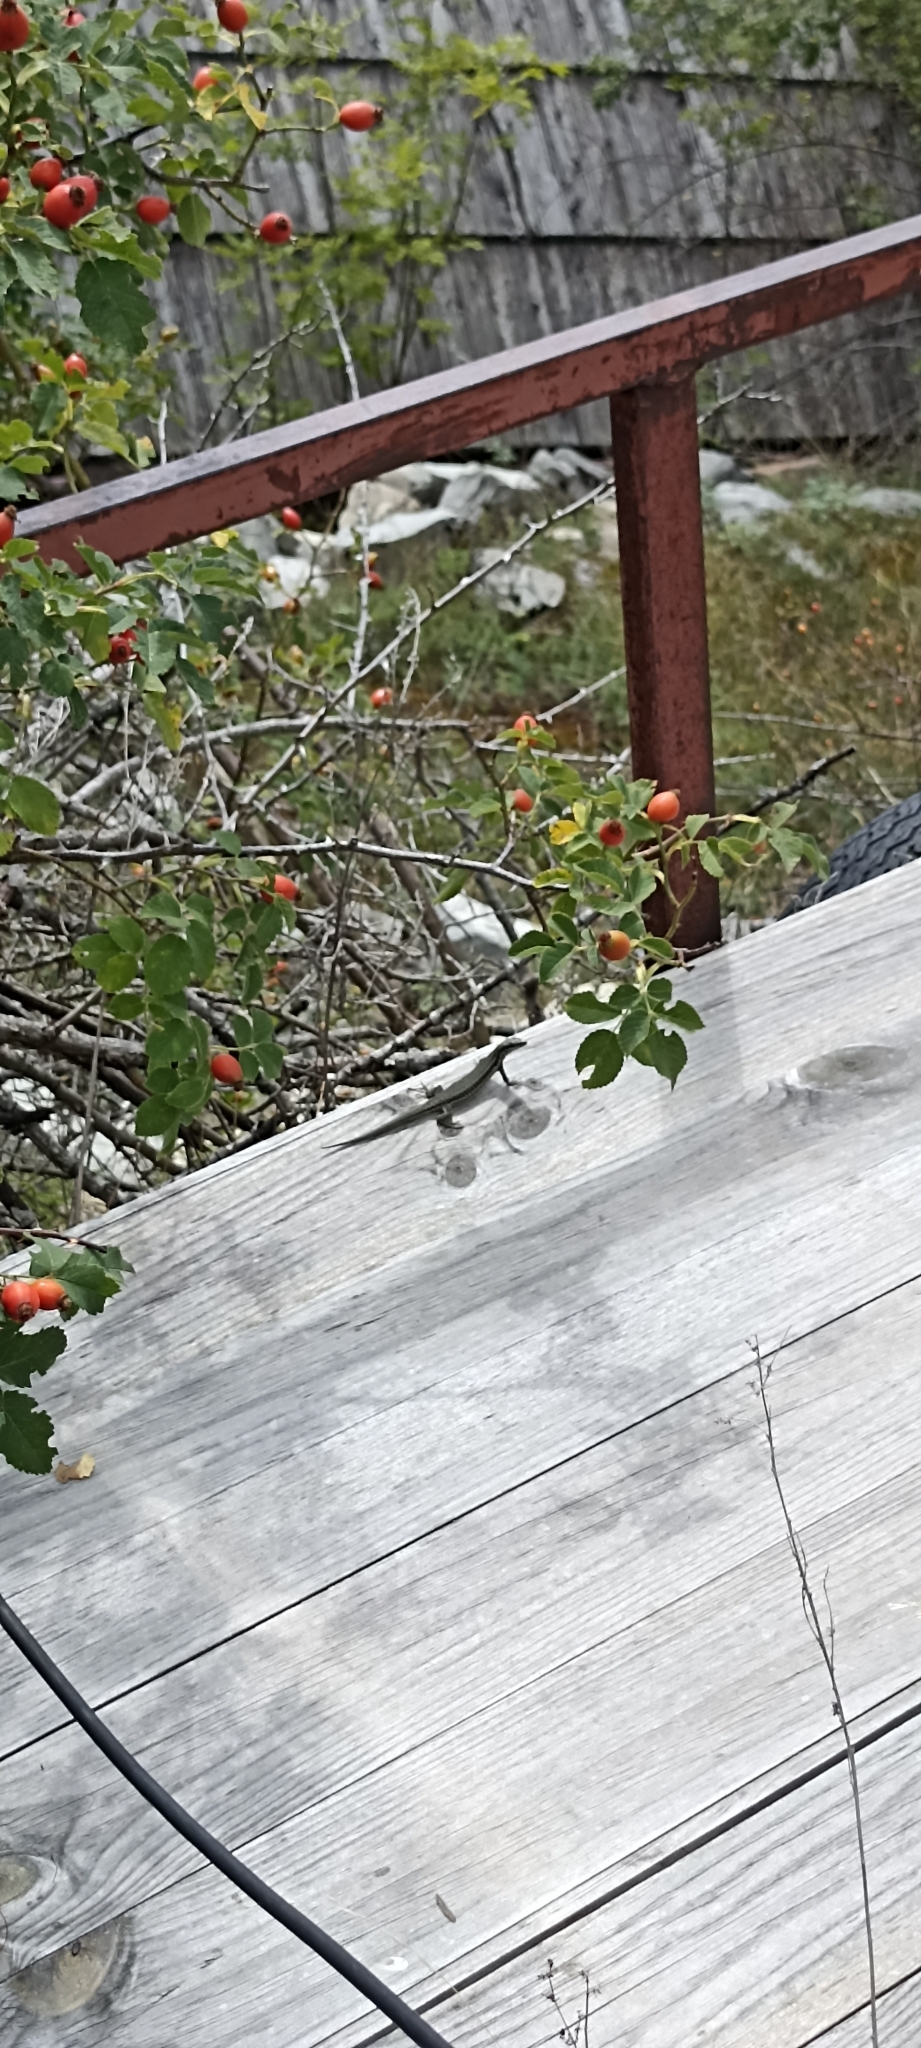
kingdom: Animalia
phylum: Chordata
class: Squamata
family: Lacertidae
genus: Podarcis
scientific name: Podarcis muralis
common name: Common wall lizard
